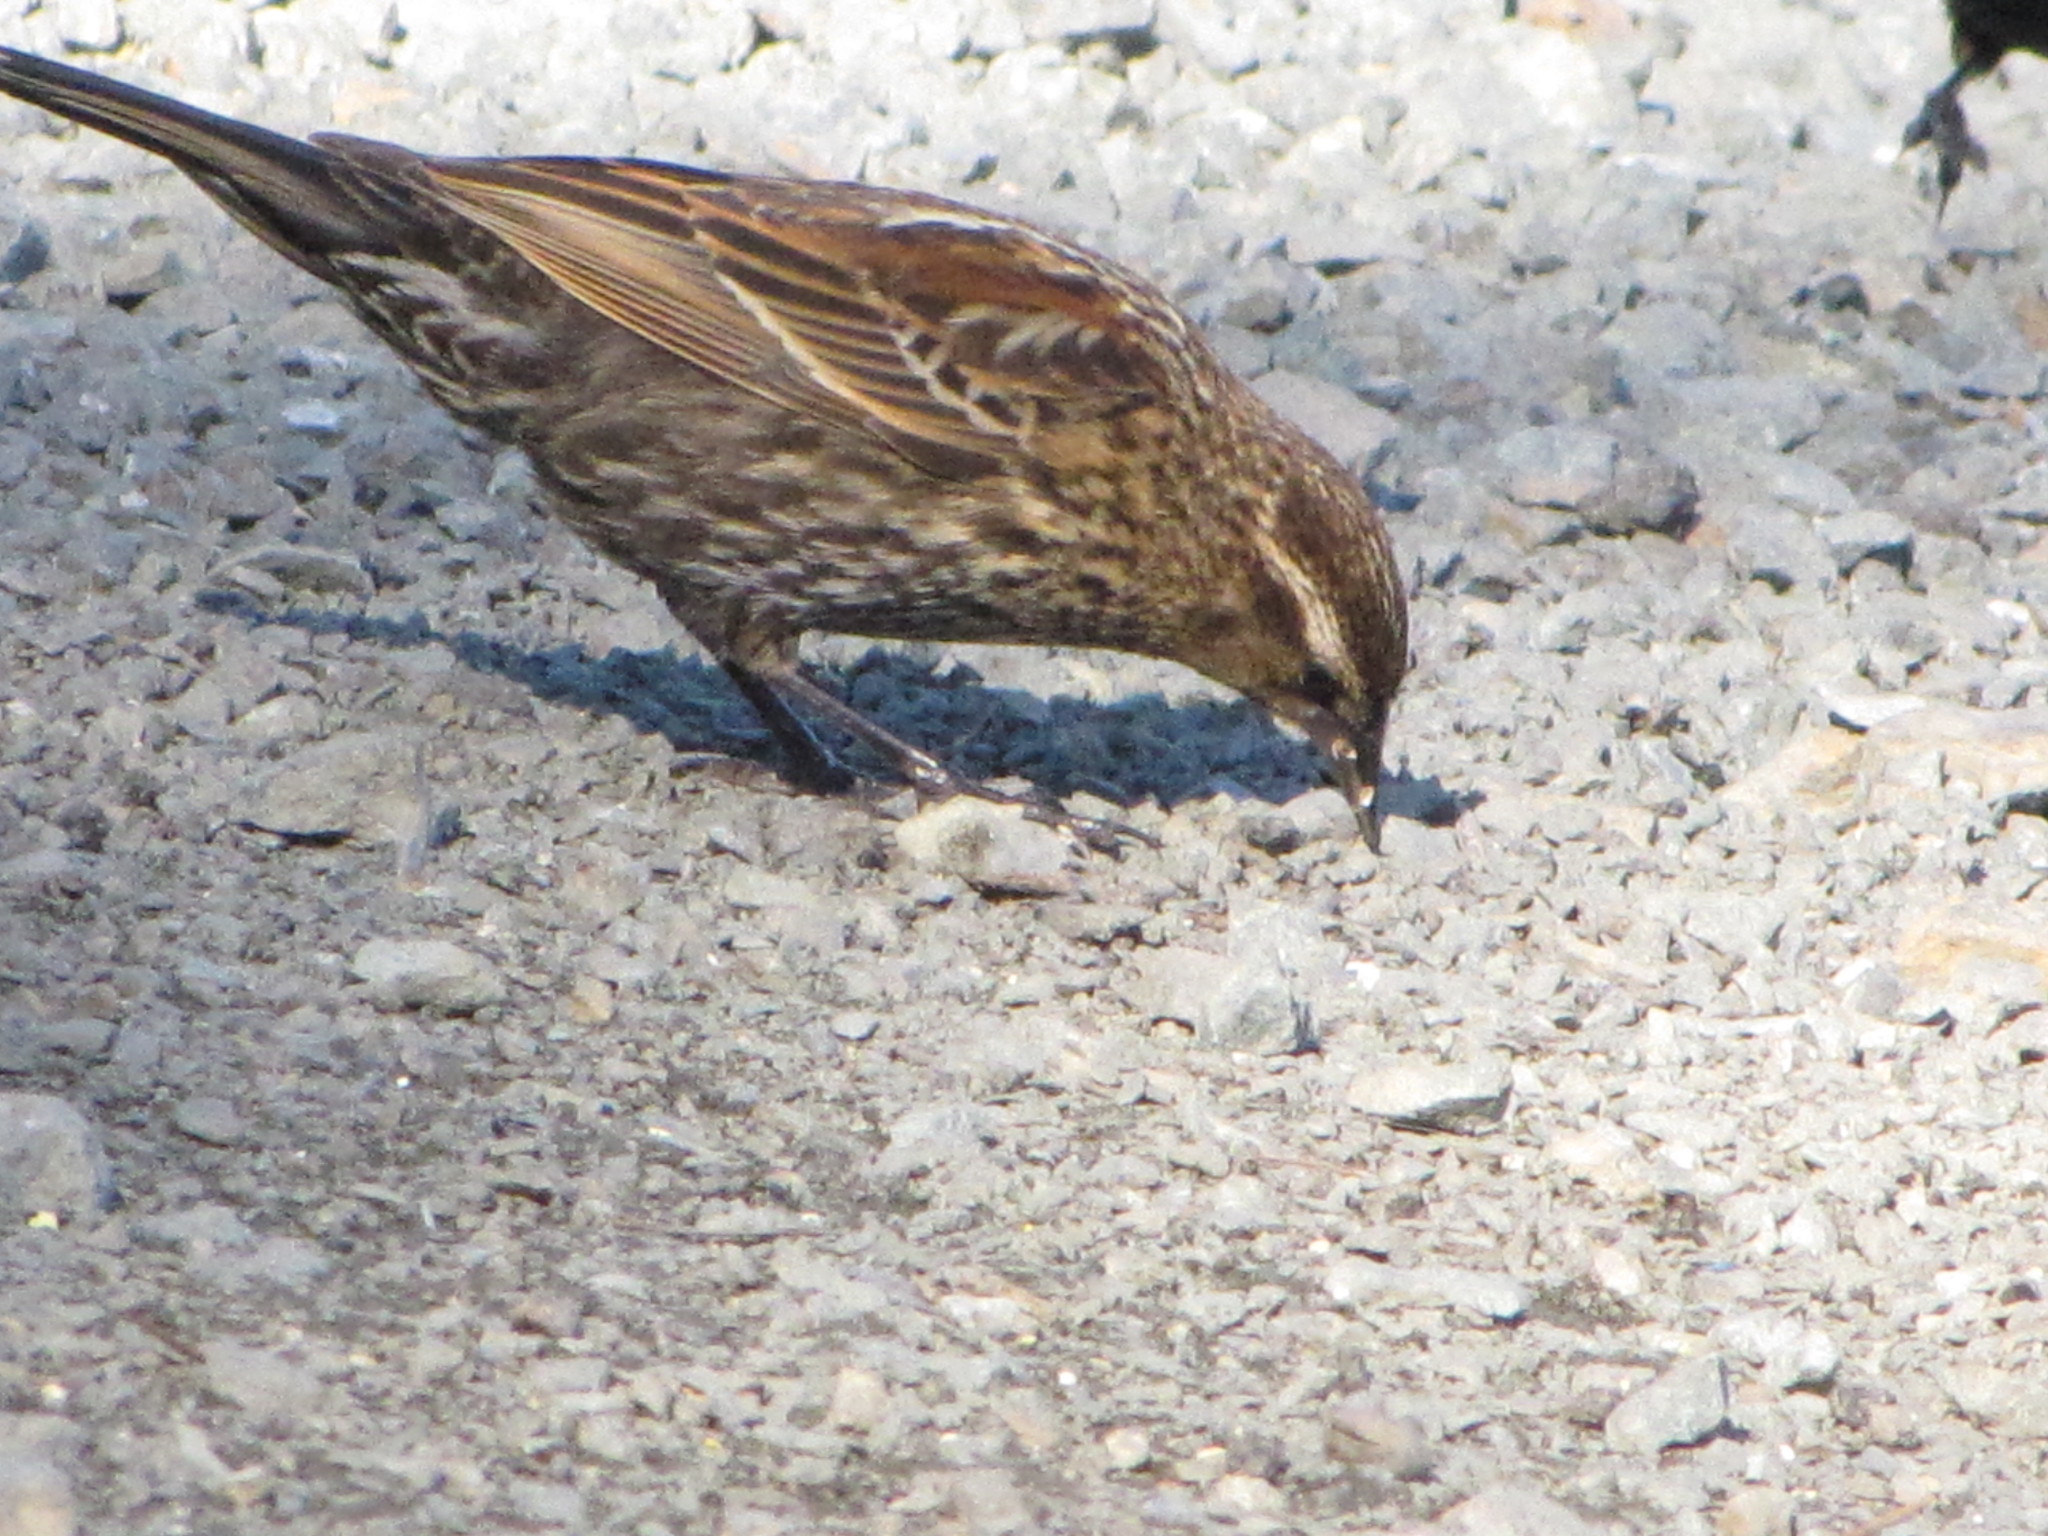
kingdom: Animalia
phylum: Chordata
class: Aves
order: Passeriformes
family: Icteridae
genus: Agelaius
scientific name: Agelaius phoeniceus
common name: Red-winged blackbird
